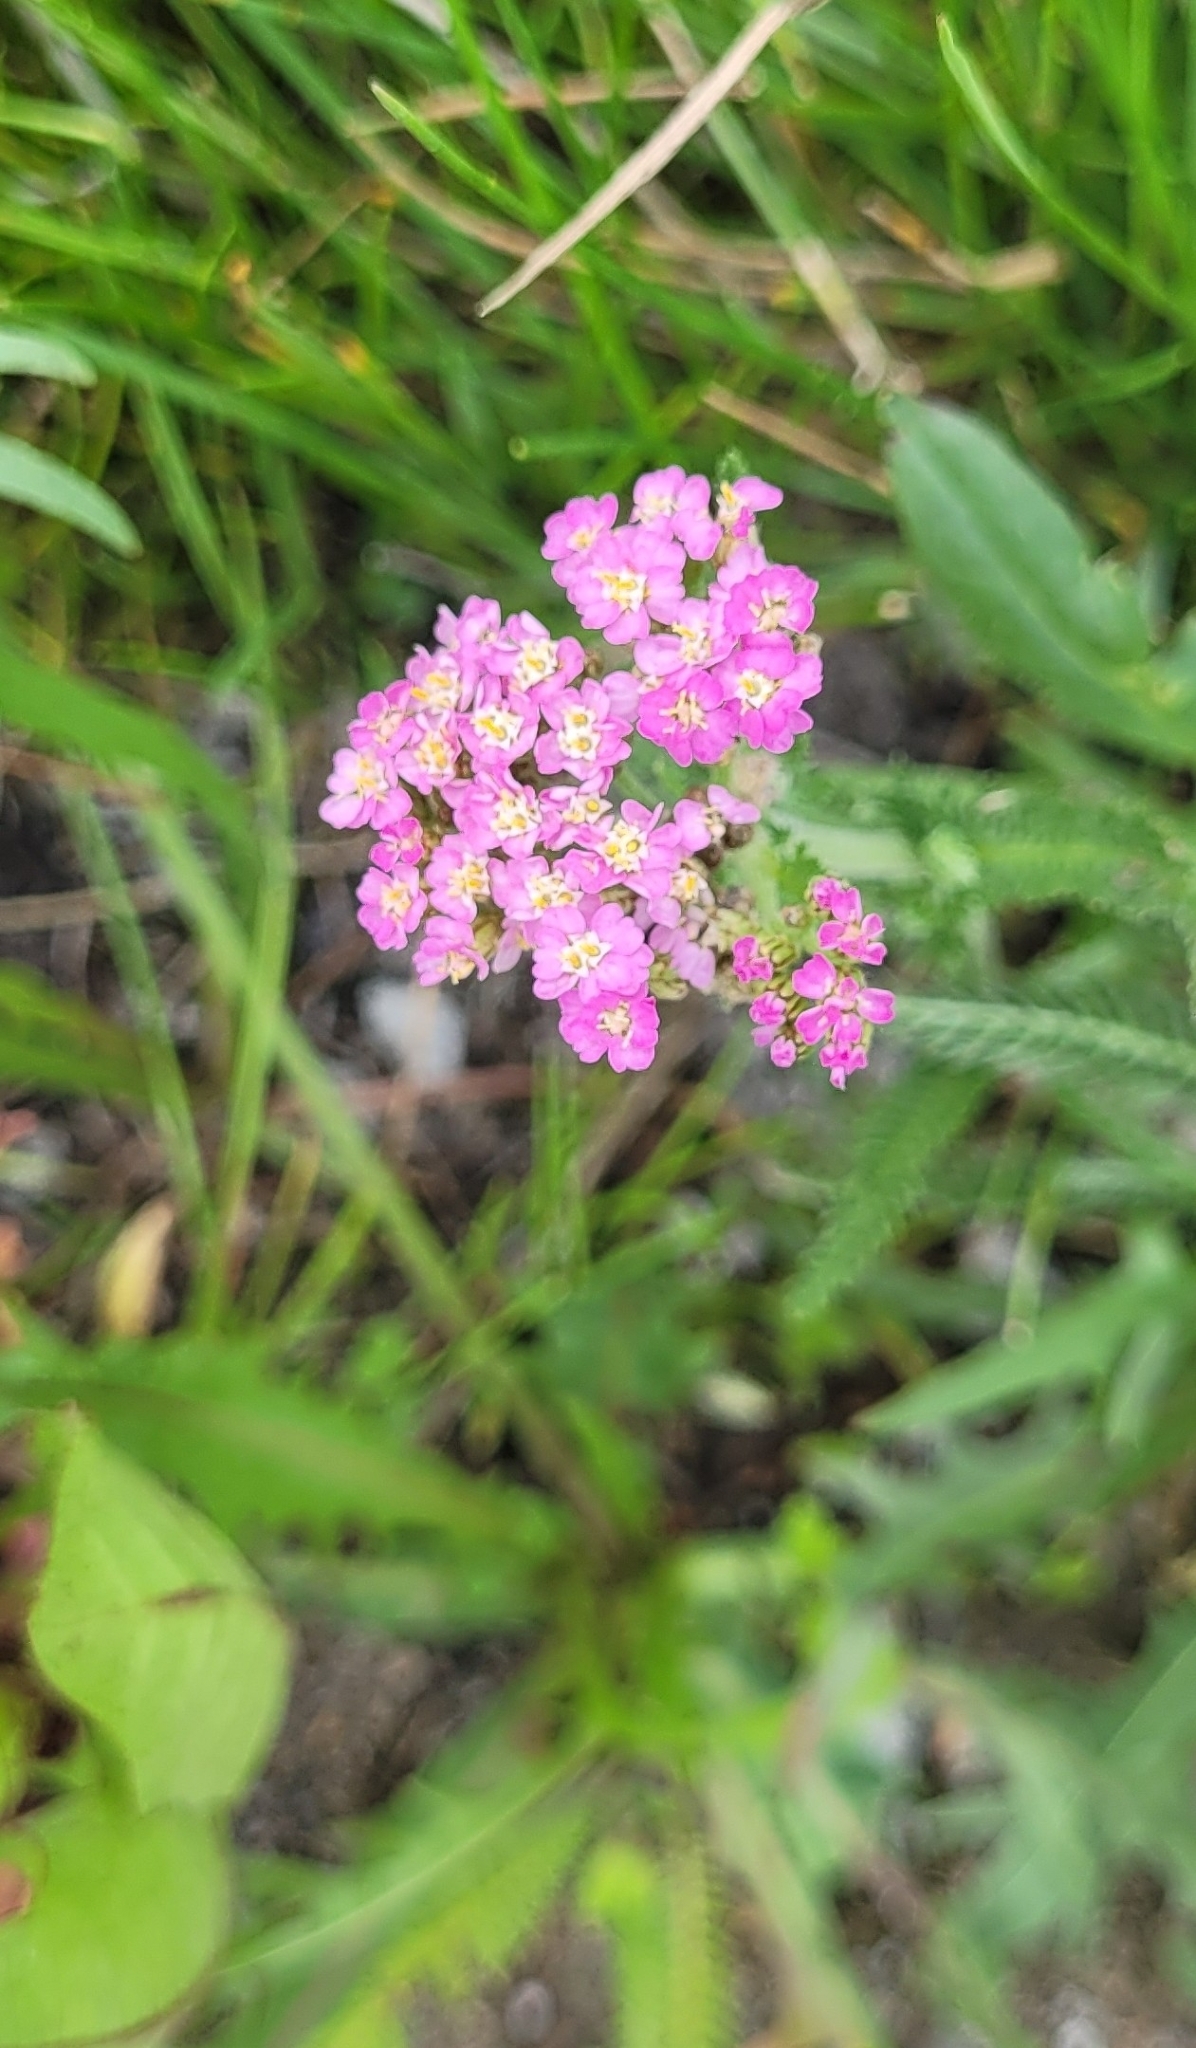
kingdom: Plantae
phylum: Tracheophyta
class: Magnoliopsida
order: Asterales
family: Asteraceae
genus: Achillea
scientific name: Achillea millefolium
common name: Yarrow
